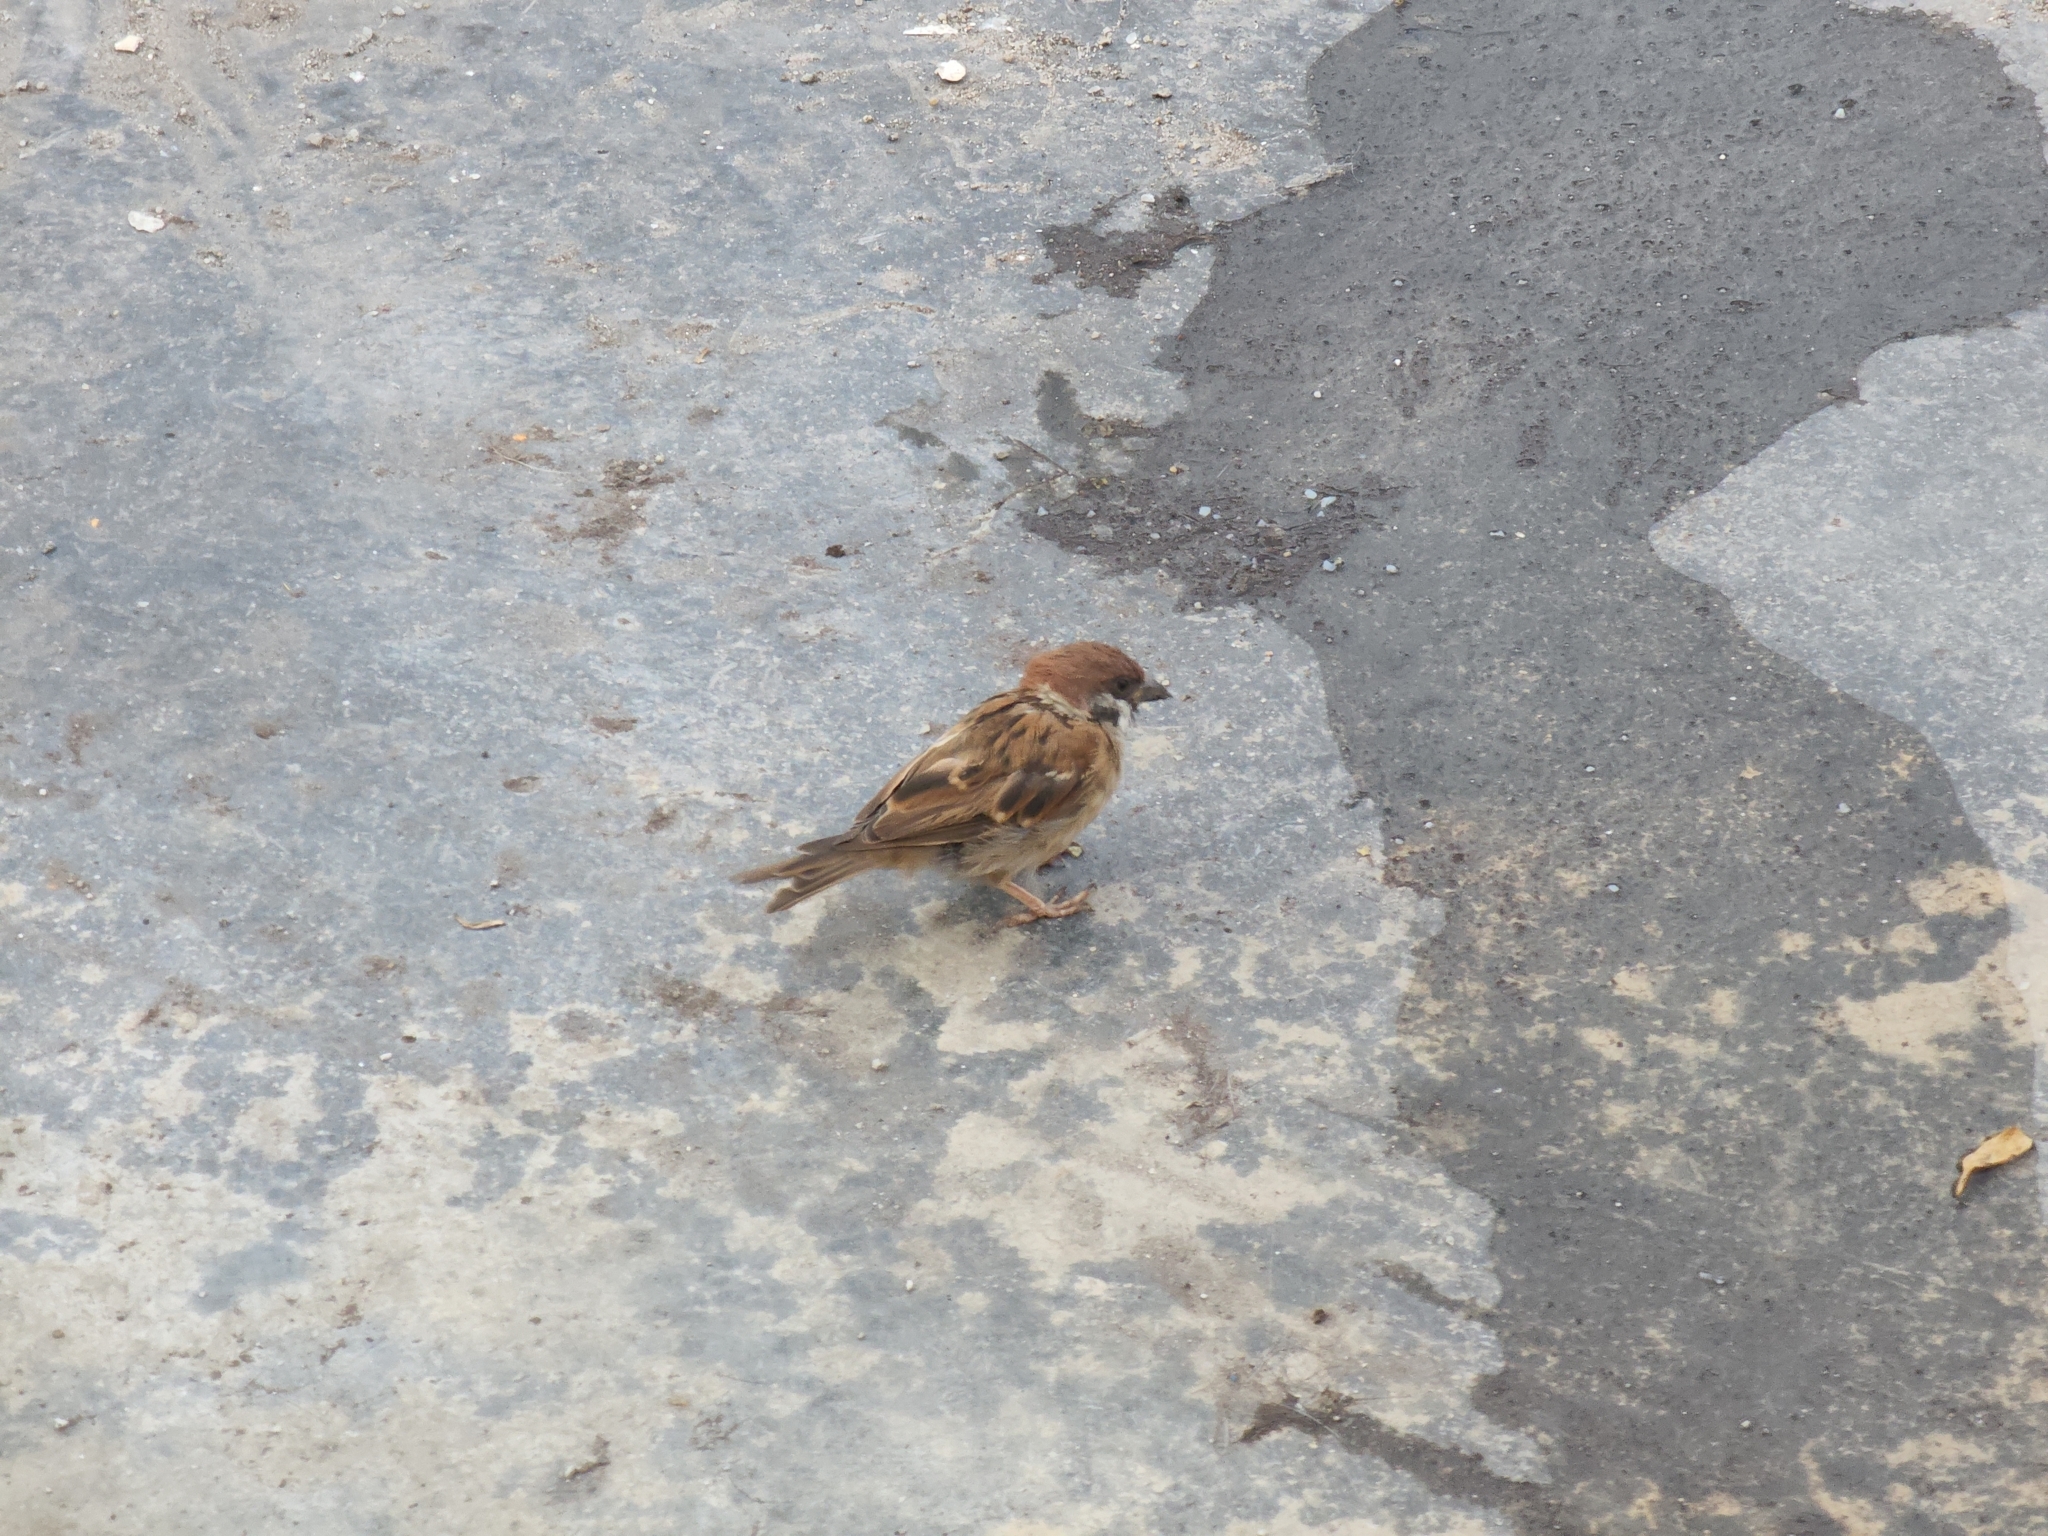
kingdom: Animalia
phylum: Chordata
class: Aves
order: Passeriformes
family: Passeridae
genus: Passer
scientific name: Passer montanus
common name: Eurasian tree sparrow
